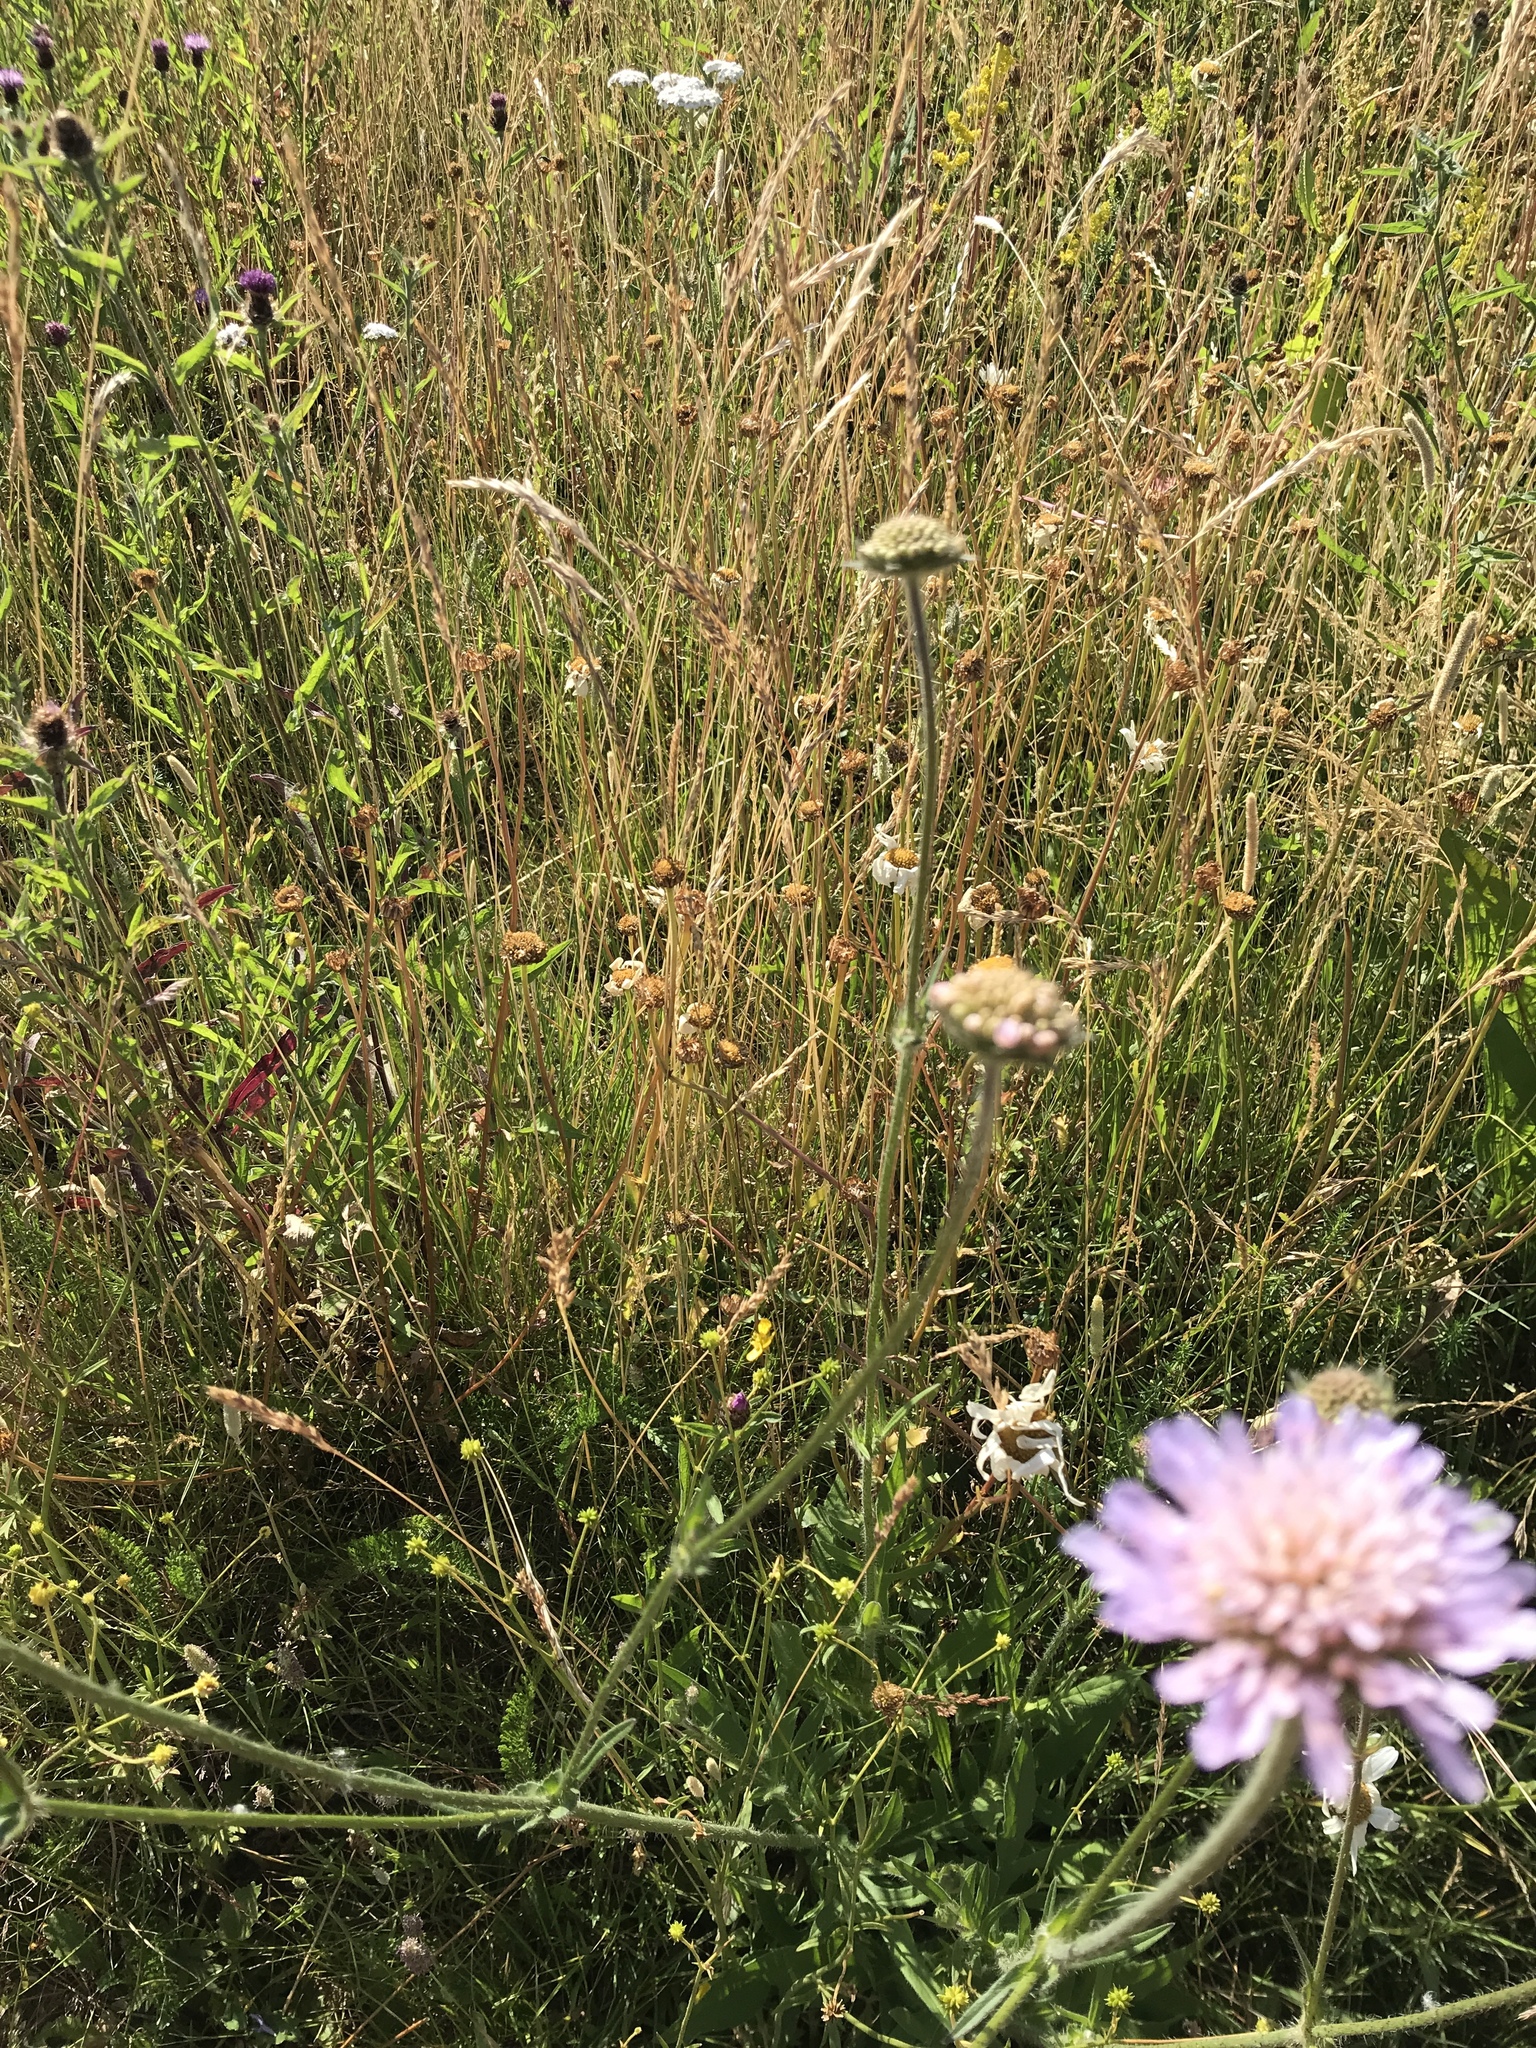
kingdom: Plantae
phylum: Tracheophyta
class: Magnoliopsida
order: Dipsacales
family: Caprifoliaceae
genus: Knautia
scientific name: Knautia arvensis
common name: Field scabiosa
